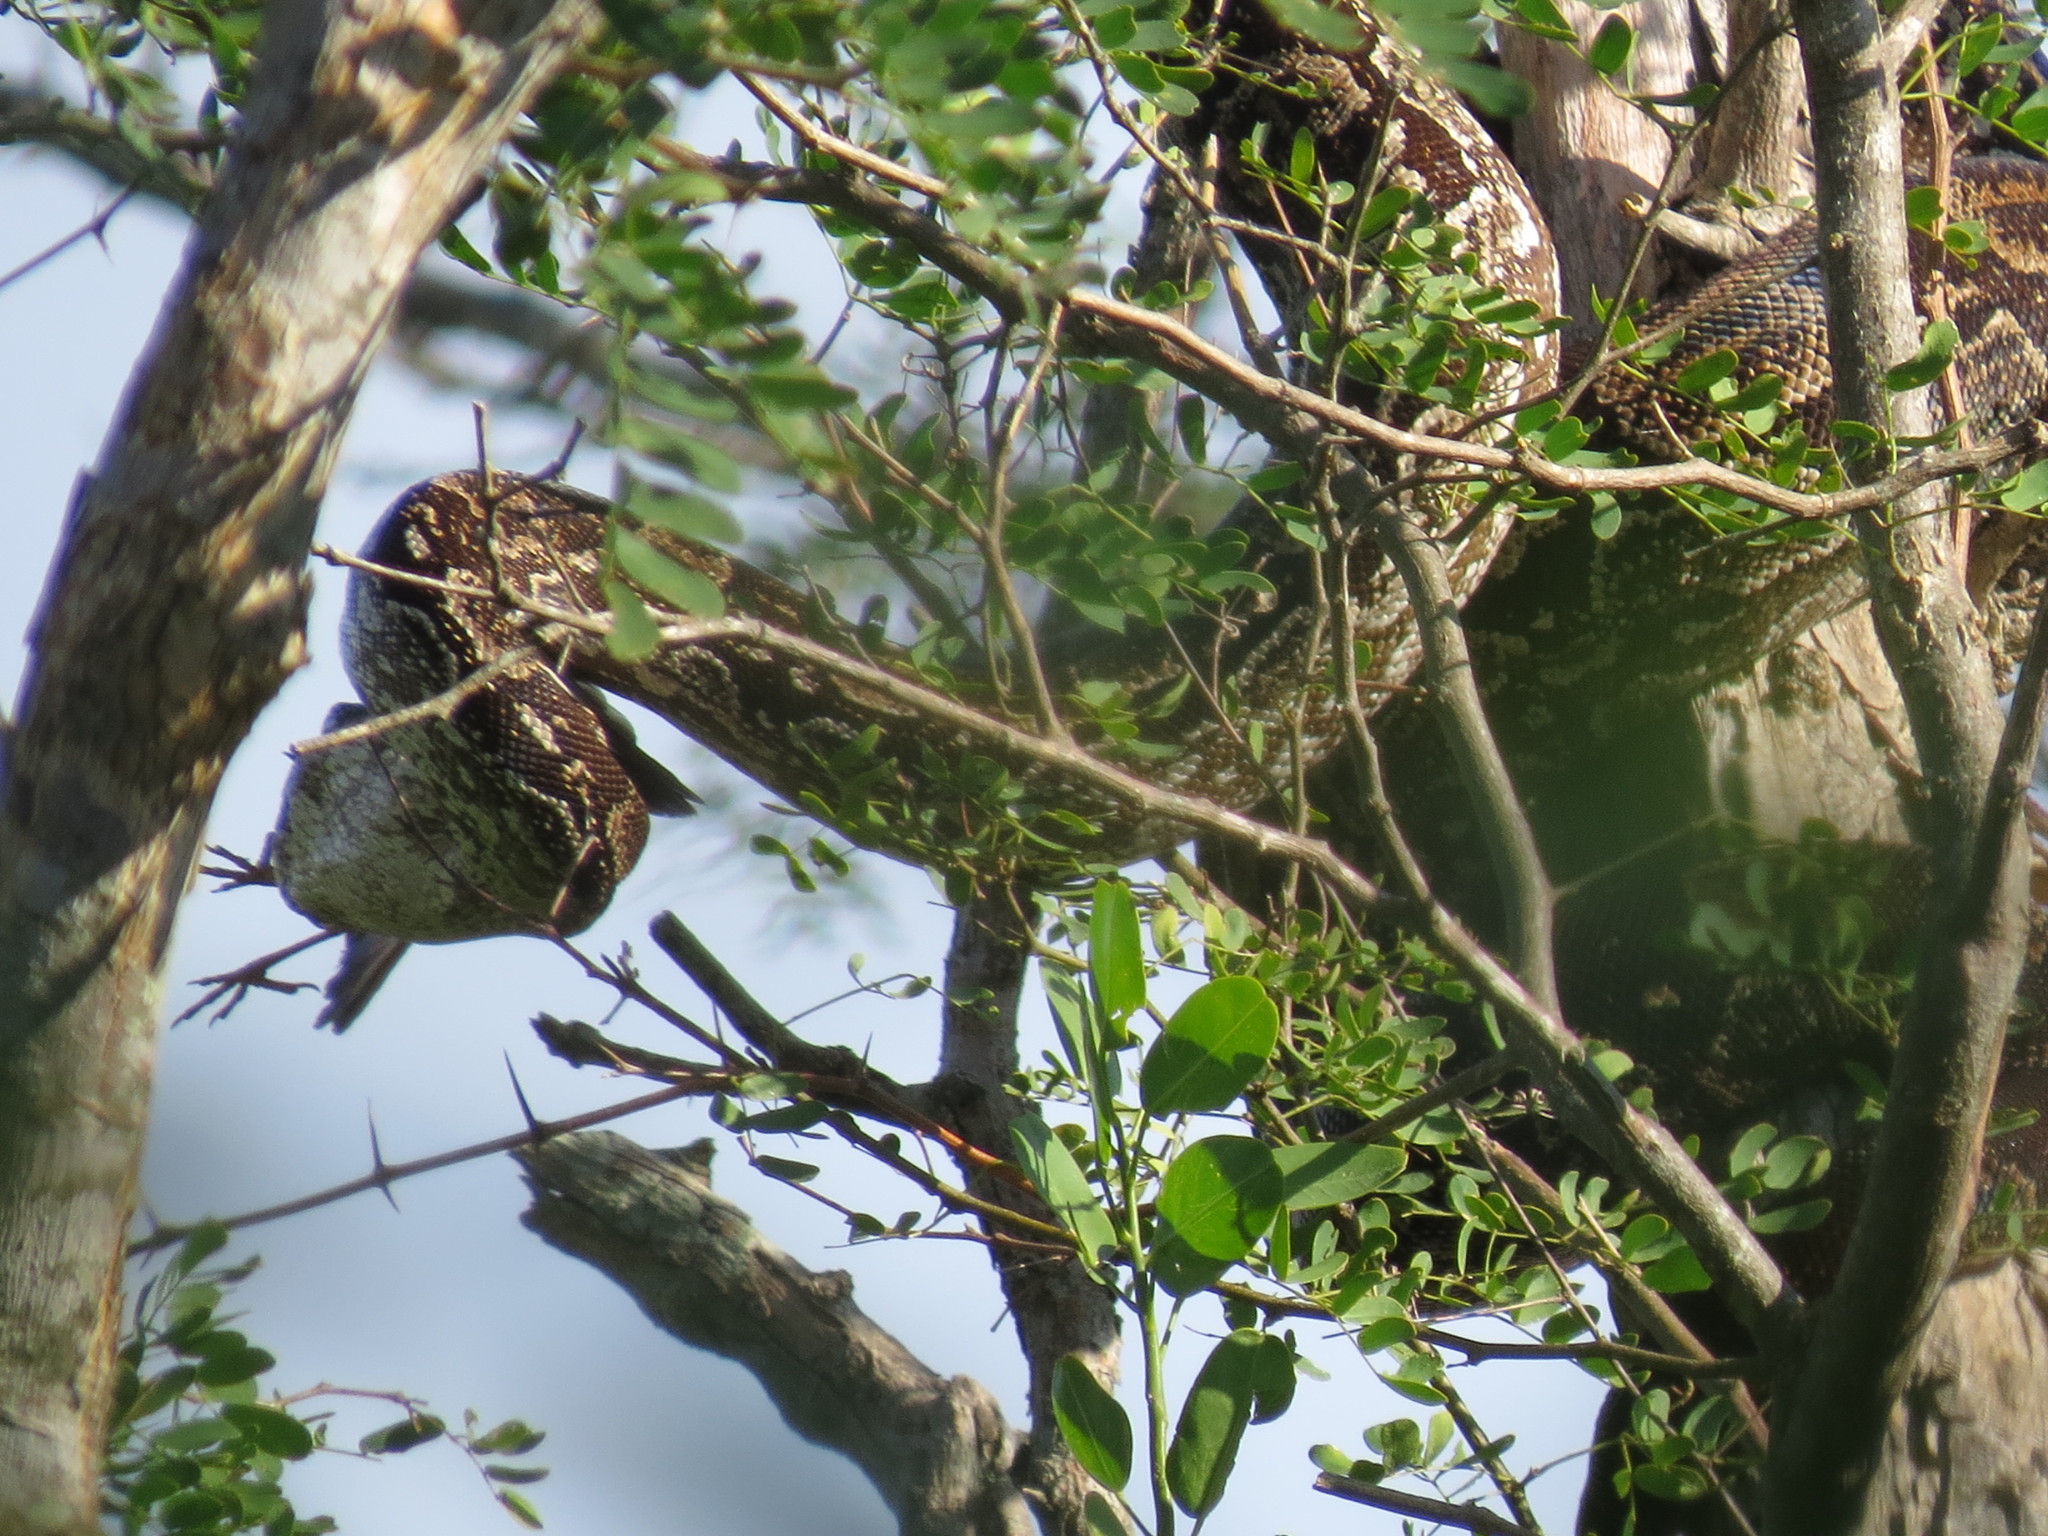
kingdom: Animalia
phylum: Chordata
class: Squamata
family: Boidae
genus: Boa
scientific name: Boa constrictor
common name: Boa constrictor
